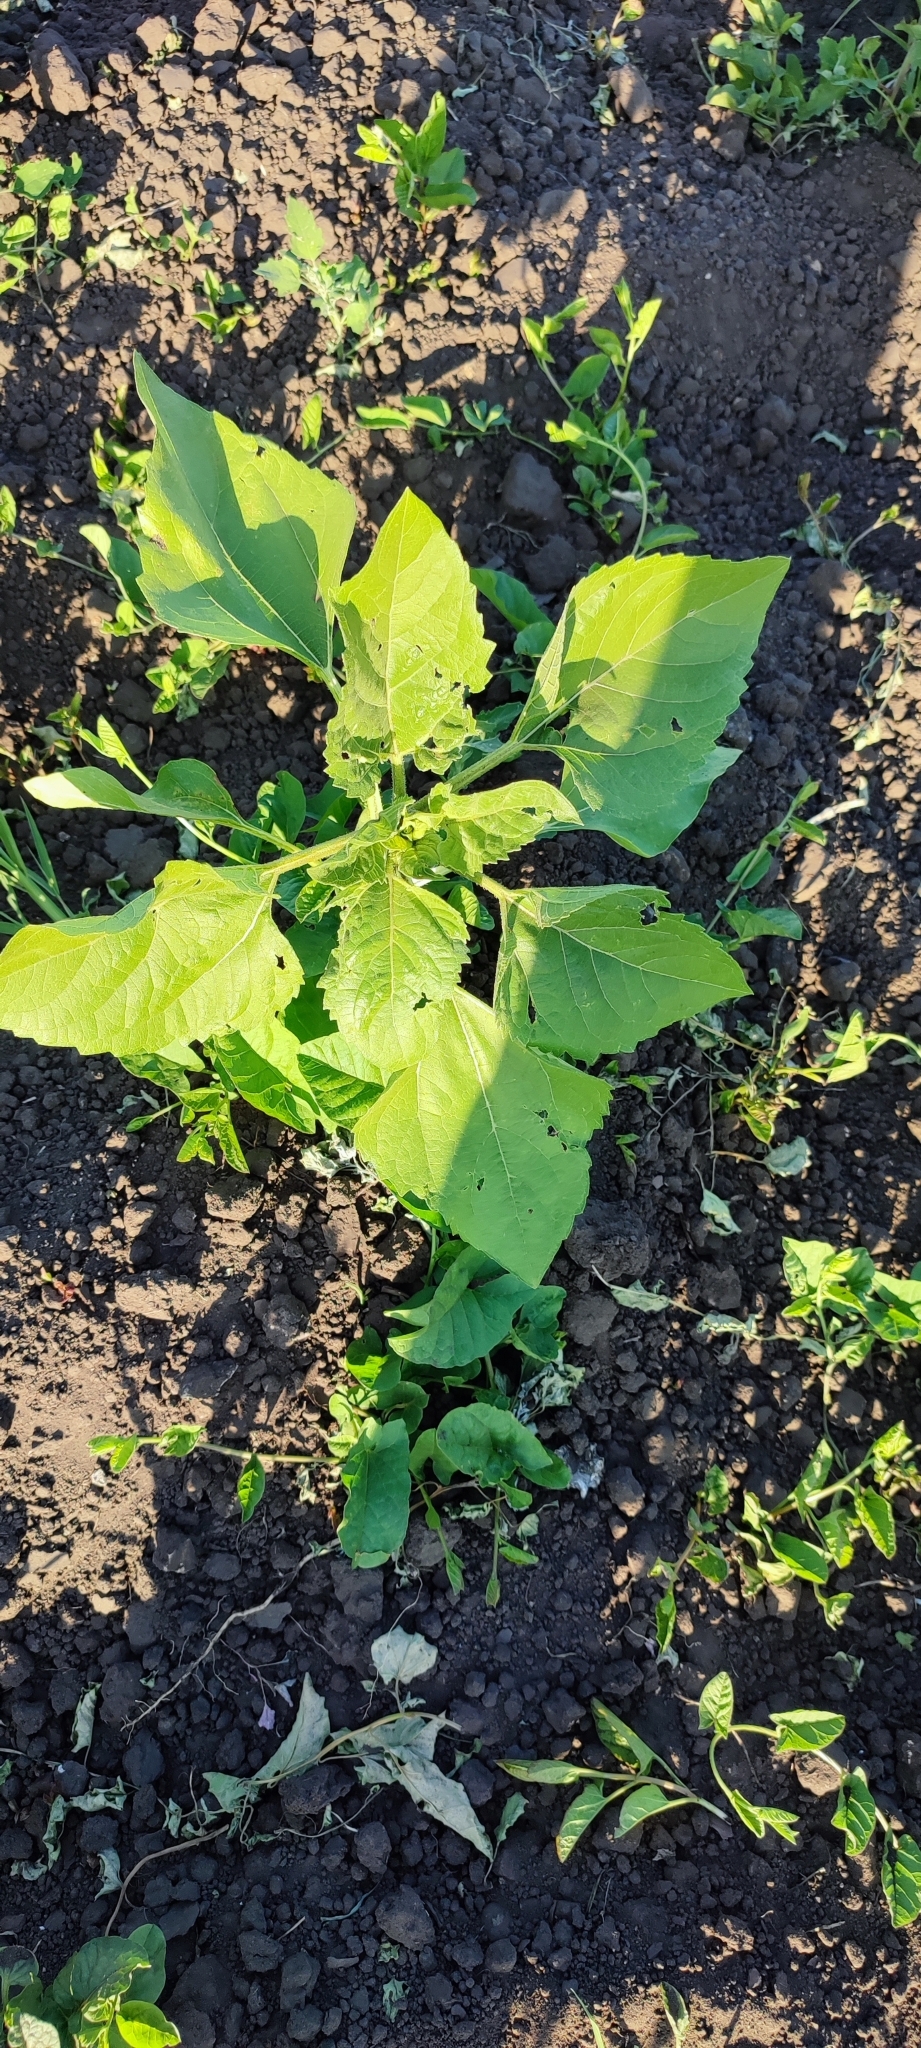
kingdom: Plantae
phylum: Tracheophyta
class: Magnoliopsida
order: Asterales
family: Asteraceae
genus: Helianthus
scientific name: Helianthus annuus
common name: Sunflower
